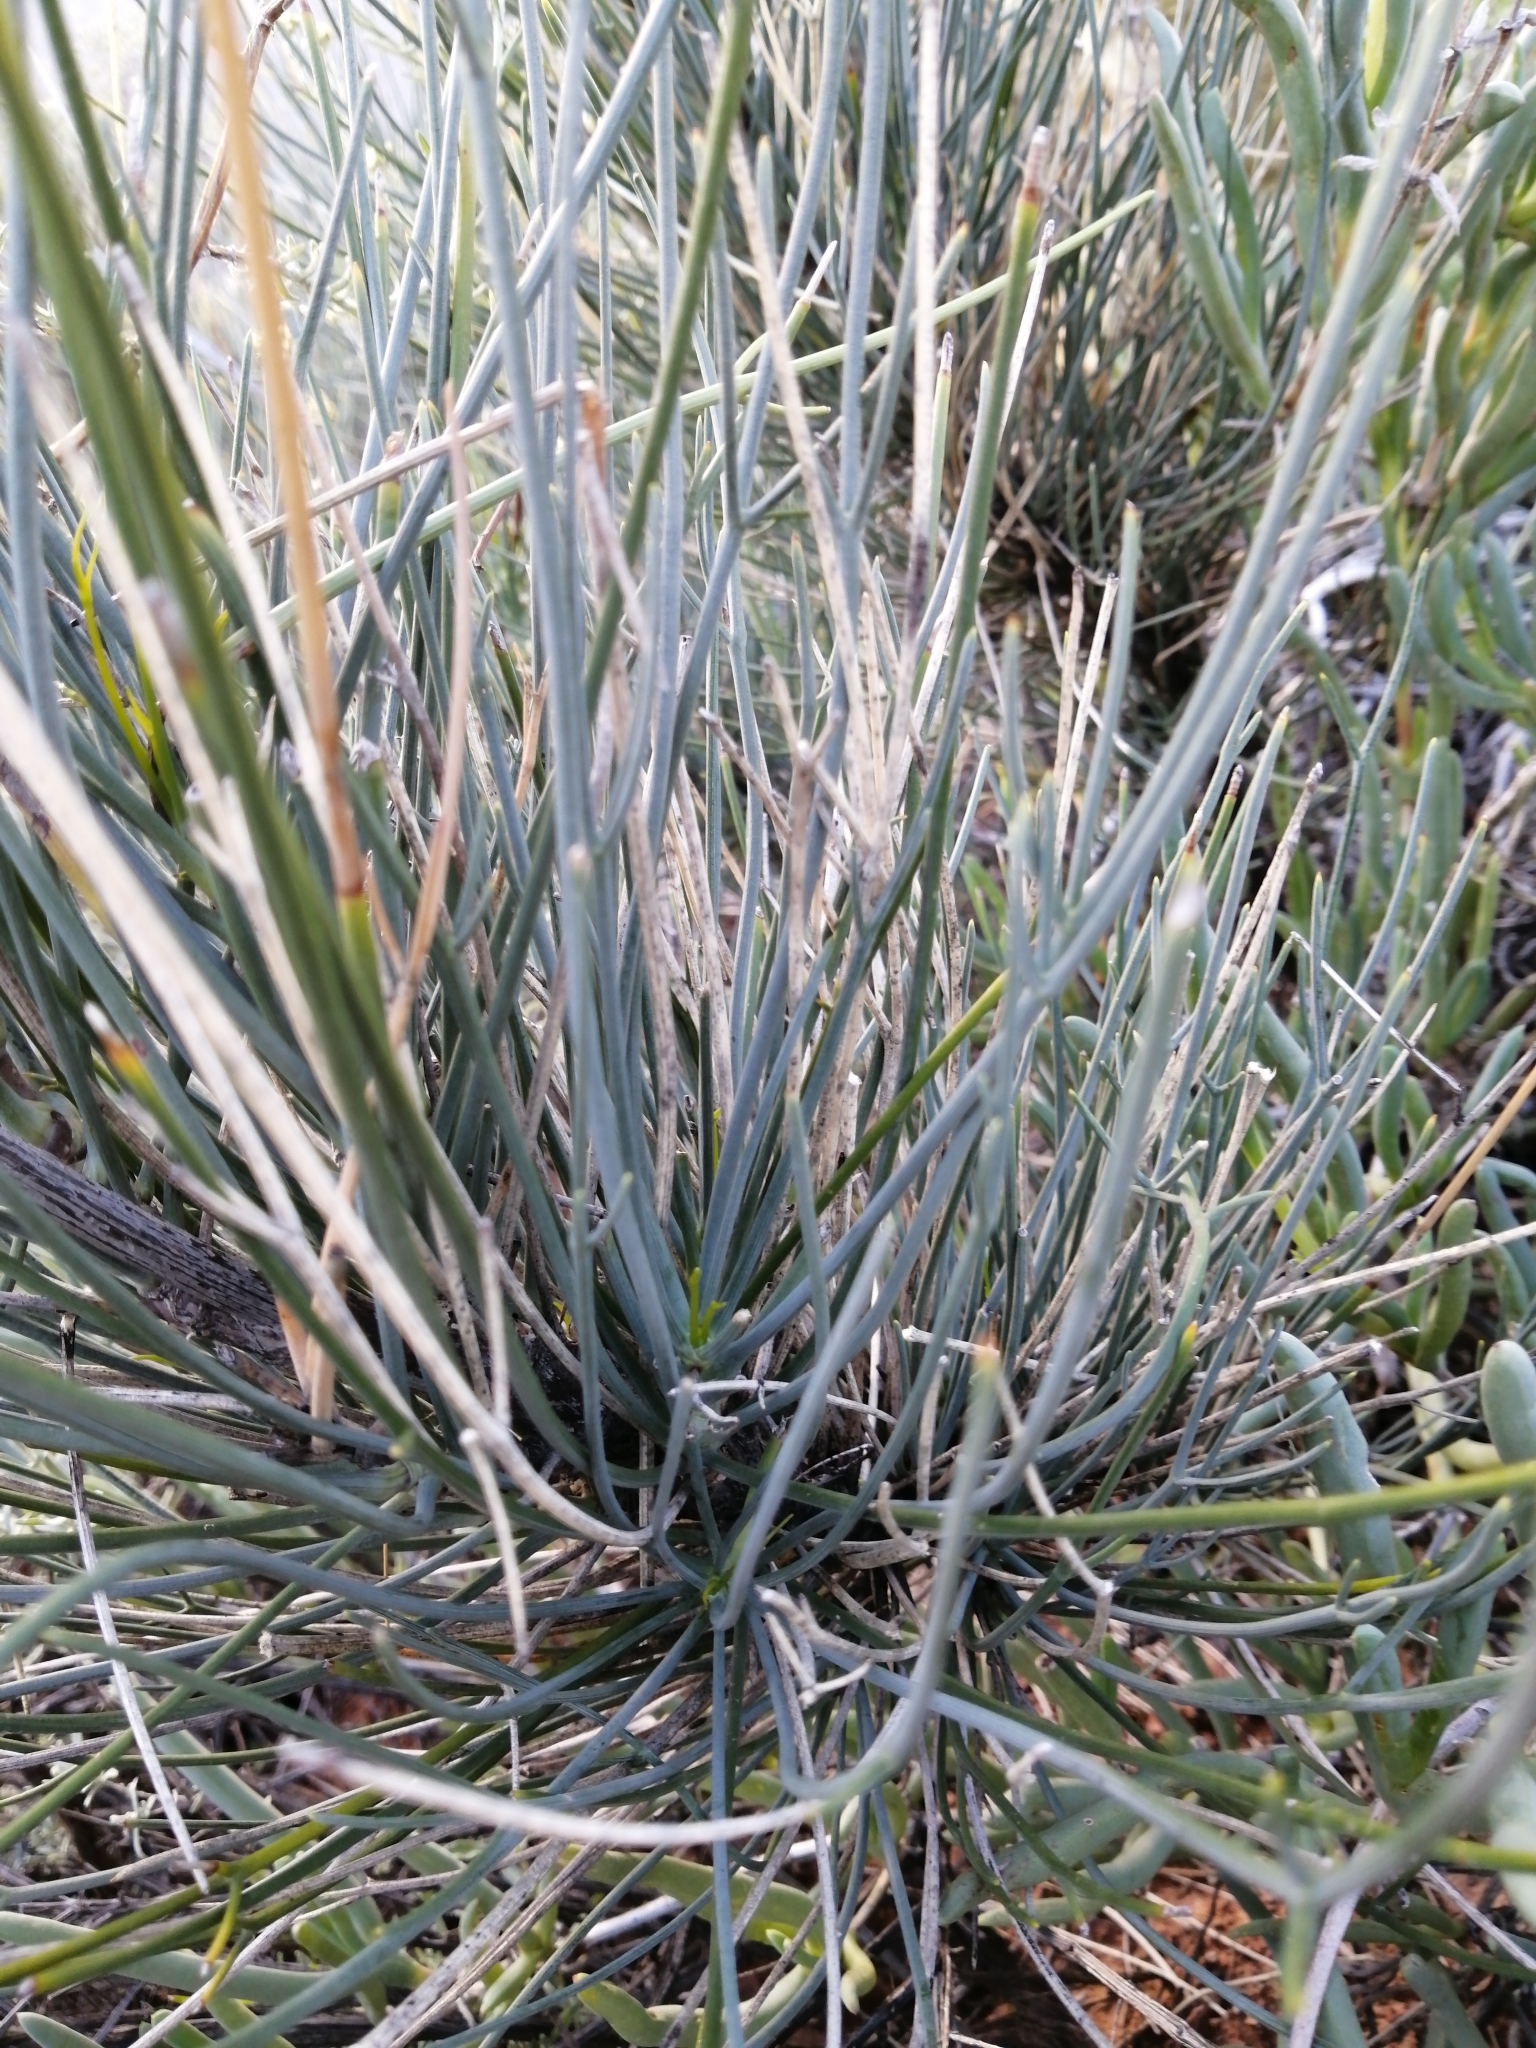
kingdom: Plantae
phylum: Tracheophyta
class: Magnoliopsida
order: Apiales
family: Apiaceae
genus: Anginon
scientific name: Anginon swellendamense
